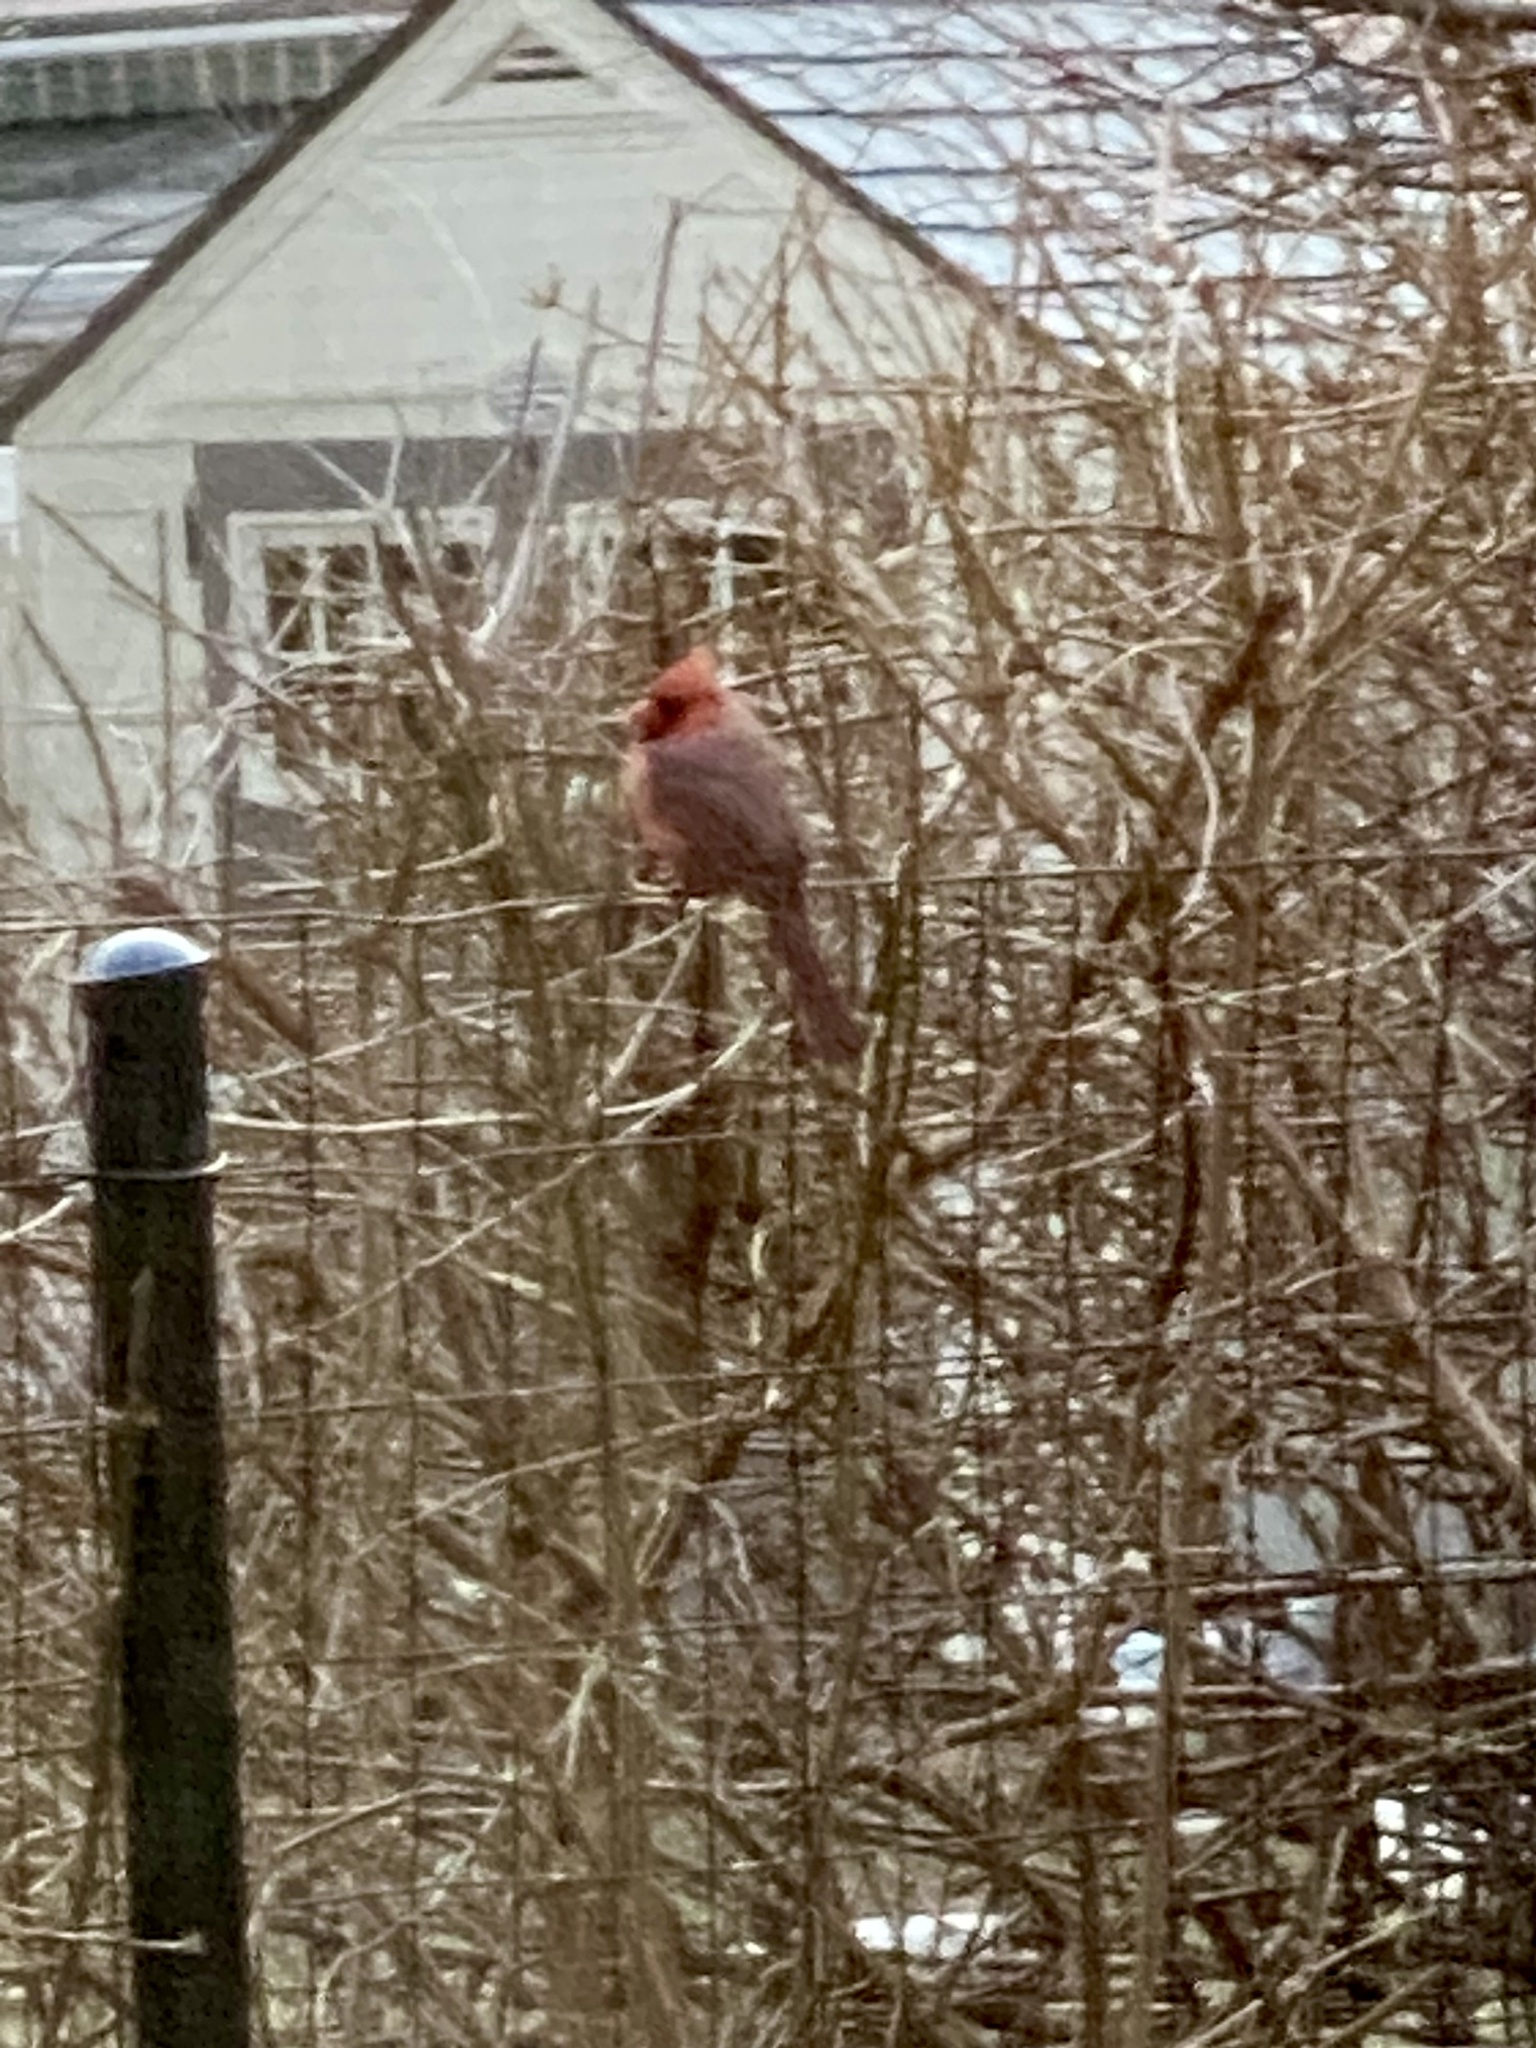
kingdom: Animalia
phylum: Chordata
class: Aves
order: Passeriformes
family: Cardinalidae
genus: Cardinalis
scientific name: Cardinalis cardinalis
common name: Northern cardinal
